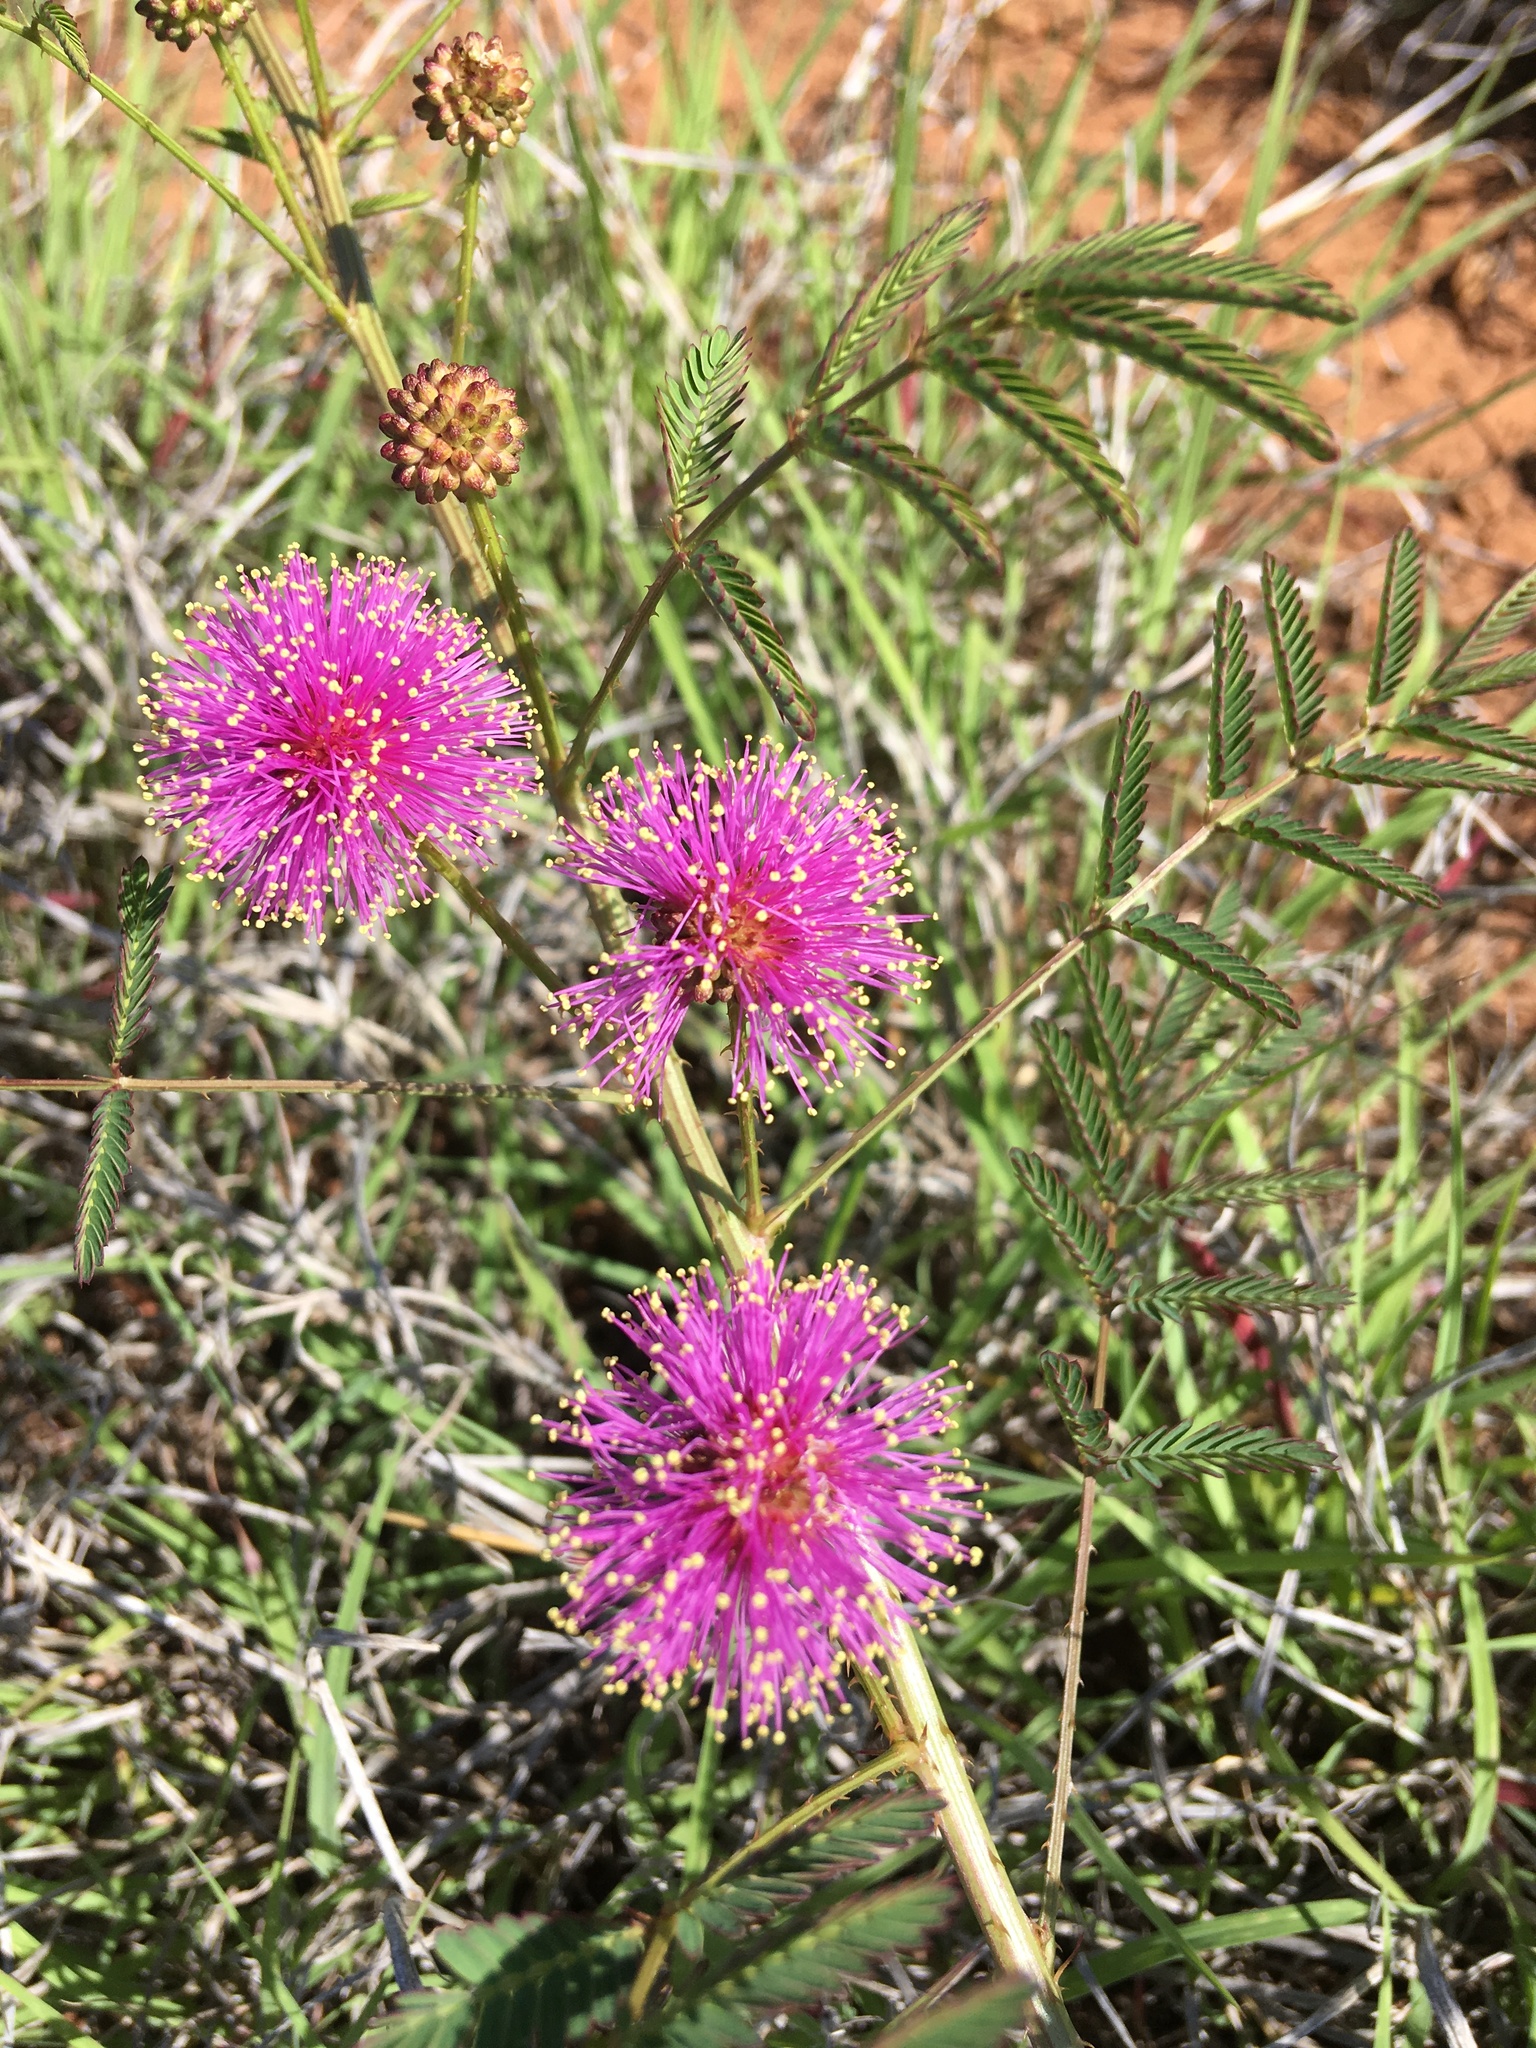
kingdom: Plantae
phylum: Tracheophyta
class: Magnoliopsida
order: Fabales
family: Fabaceae
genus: Mimosa
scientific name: Mimosa quadrivalvis
